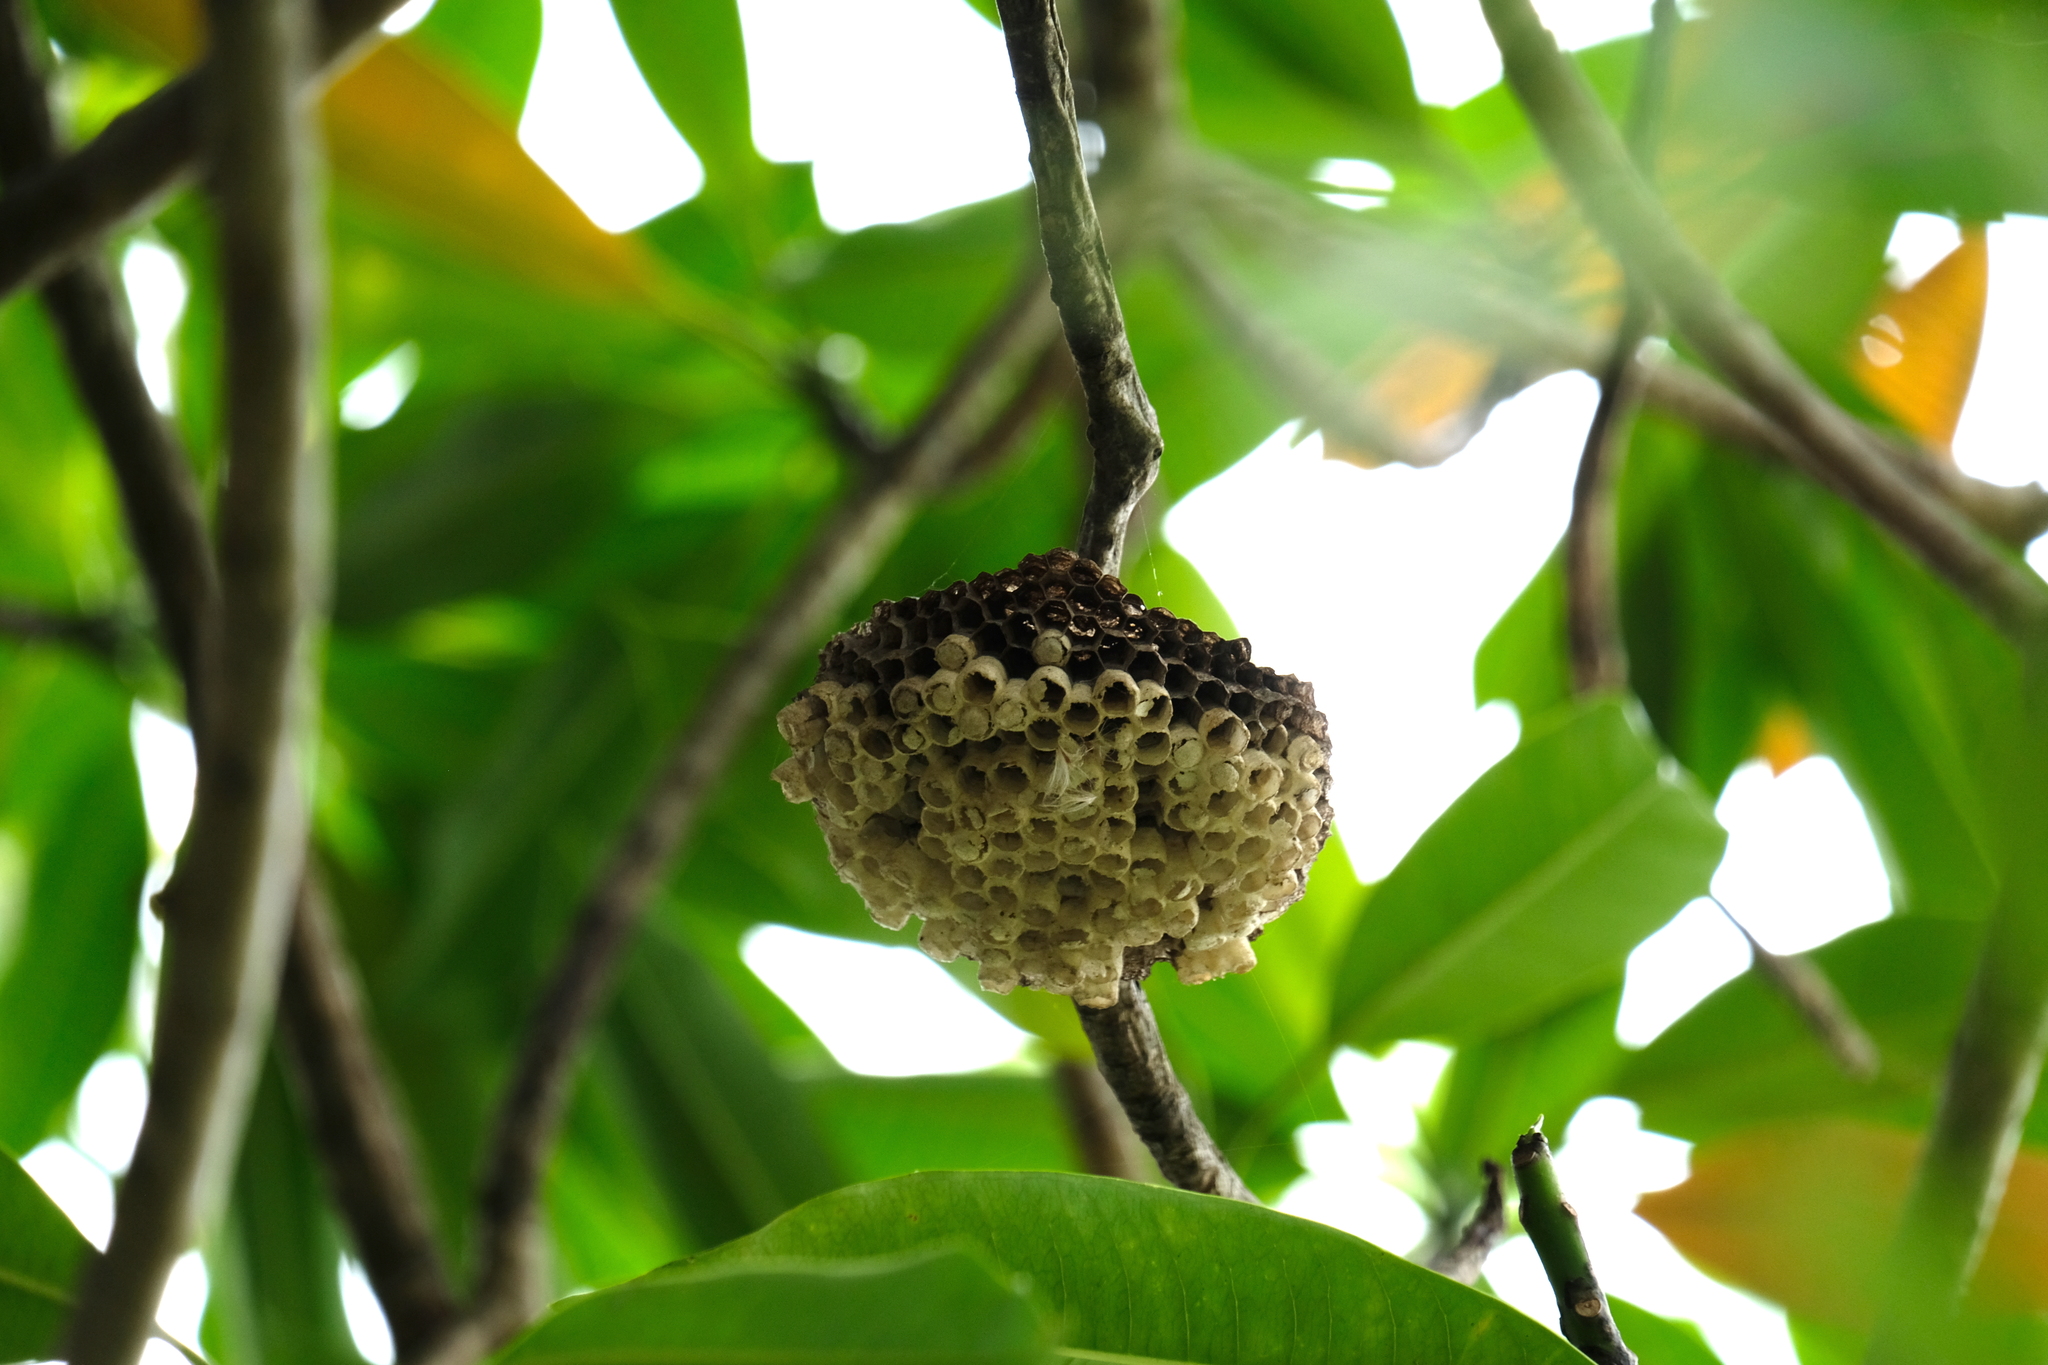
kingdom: Animalia
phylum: Arthropoda
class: Insecta
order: Hymenoptera
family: Vespidae
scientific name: Vespidae
